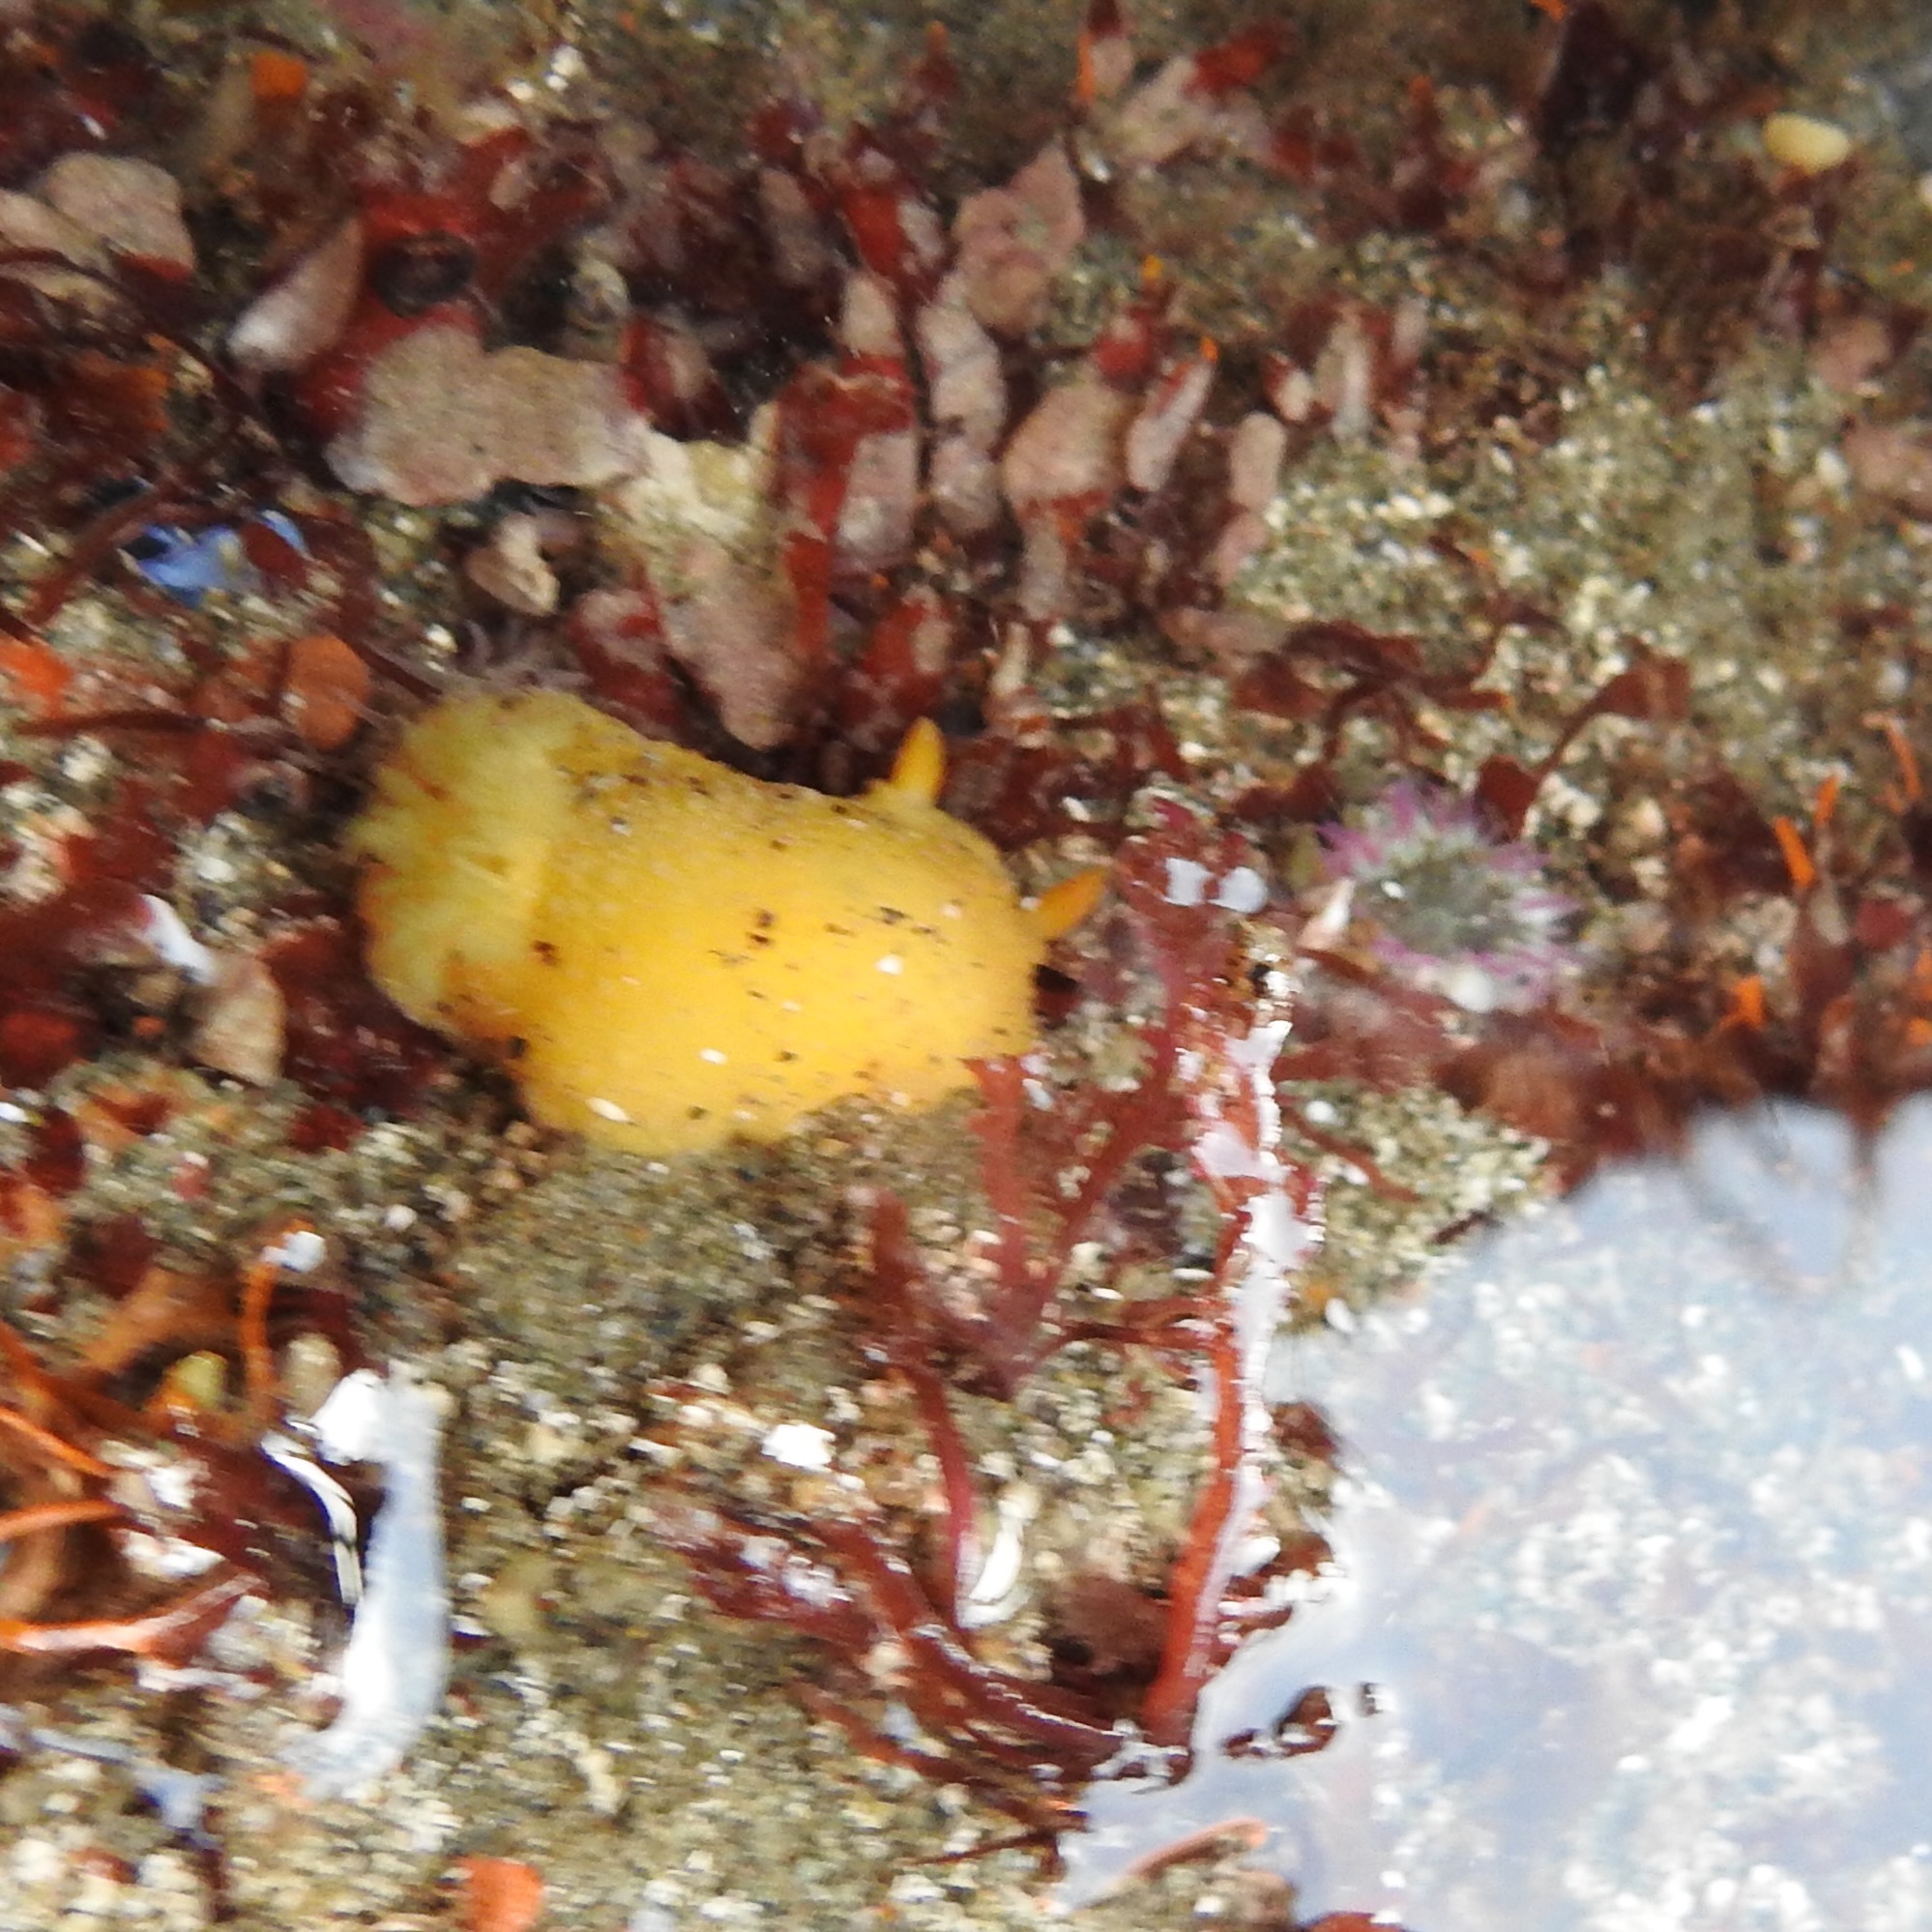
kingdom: Animalia
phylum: Mollusca
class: Gastropoda
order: Nudibranchia
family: Dorididae
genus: Doris
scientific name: Doris montereyensis
